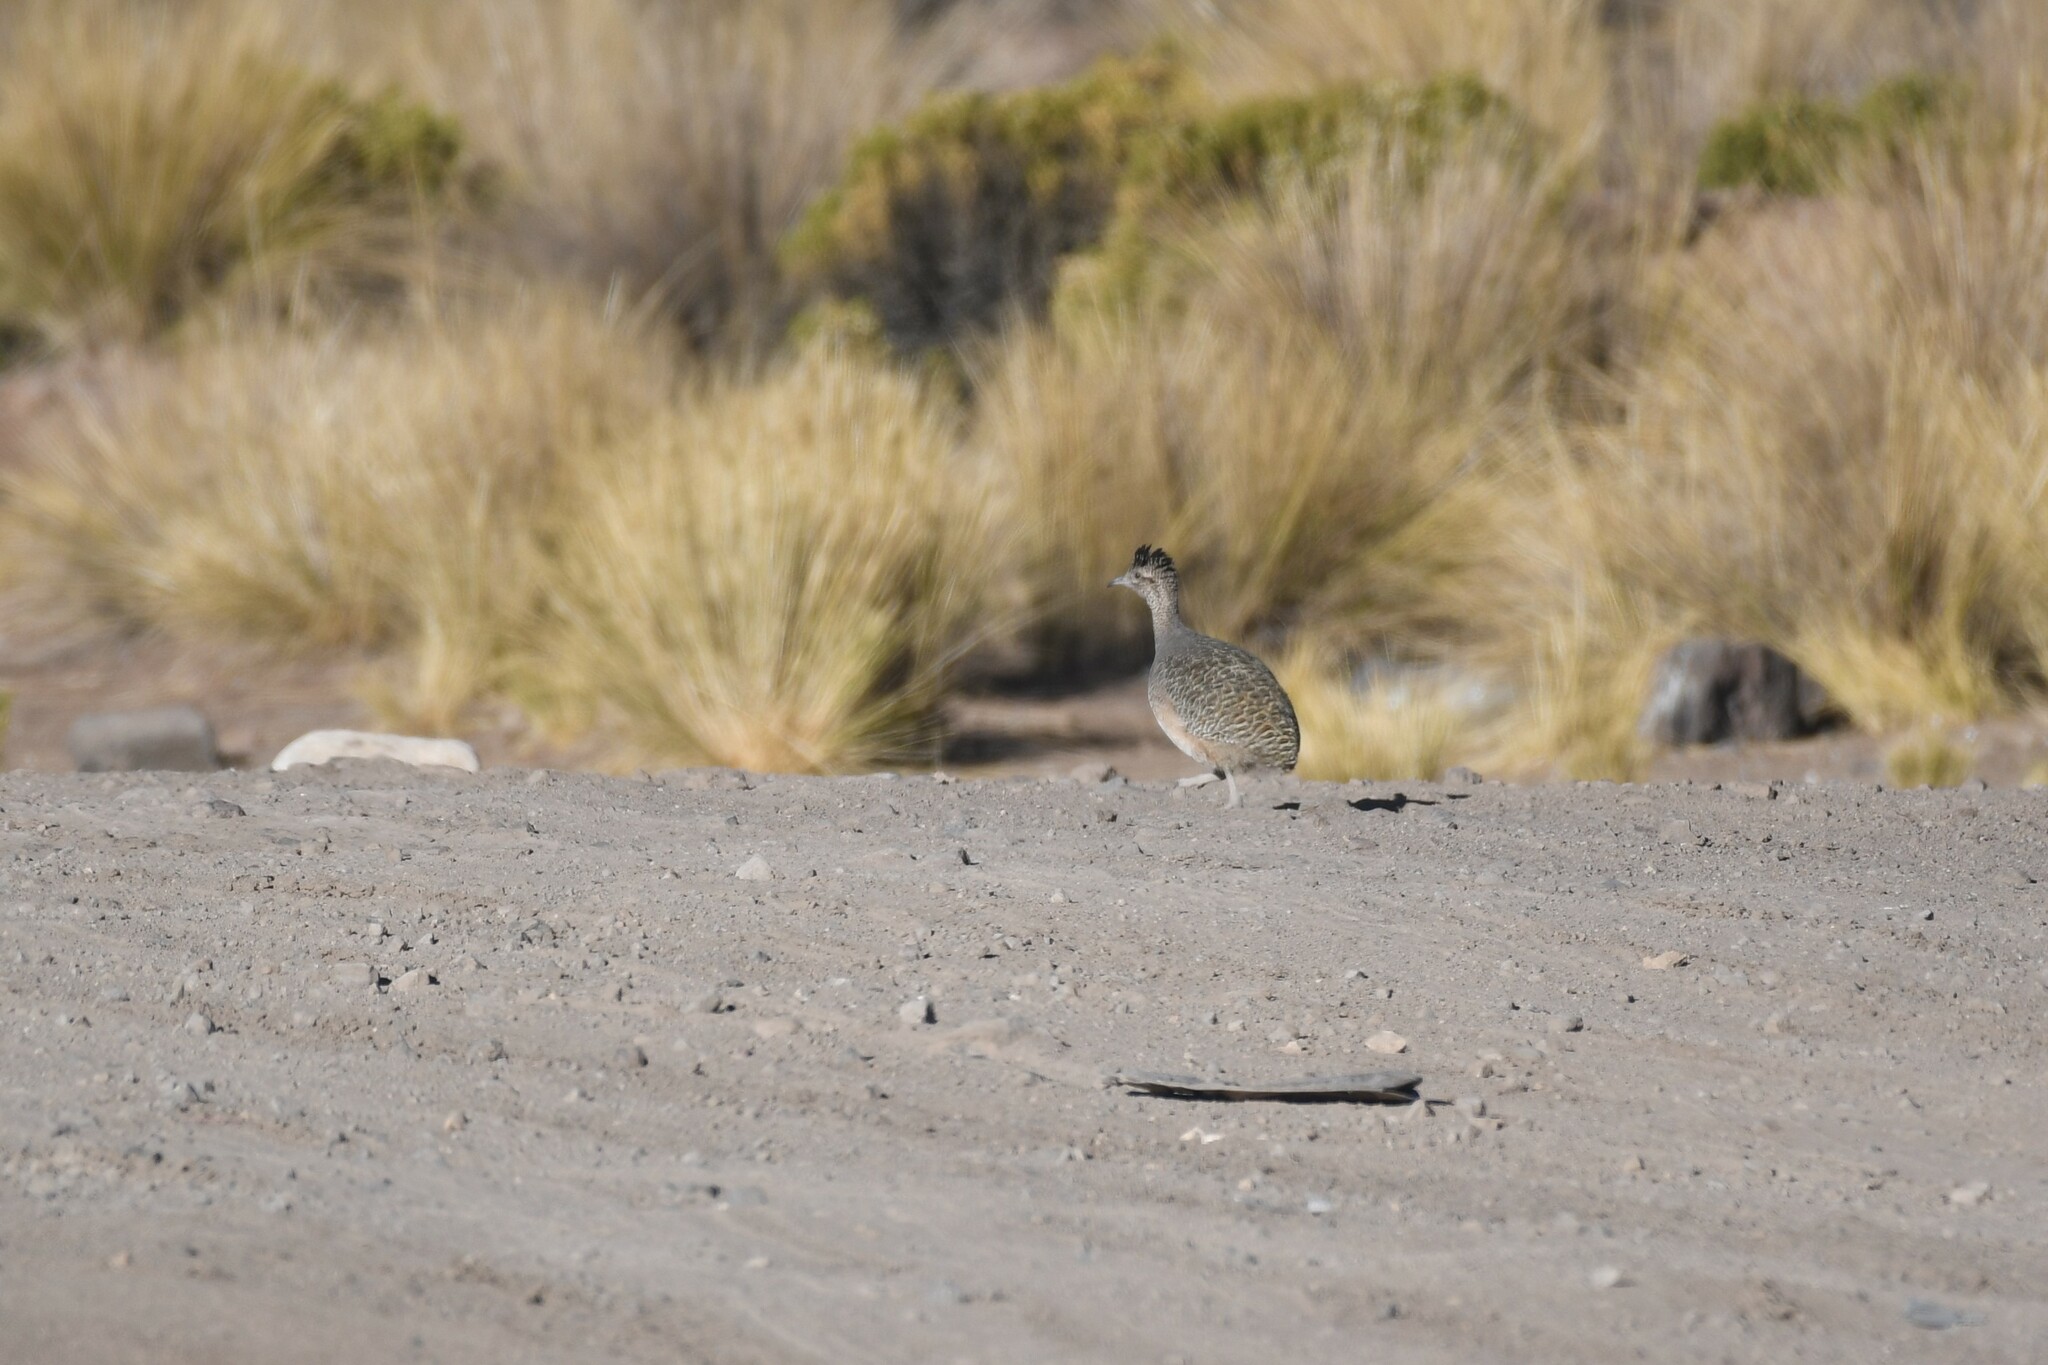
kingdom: Animalia
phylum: Chordata
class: Aves
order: Tinamiformes
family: Tinamidae
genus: Nothoprocta
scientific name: Nothoprocta ornata
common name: Ornate tinamou
